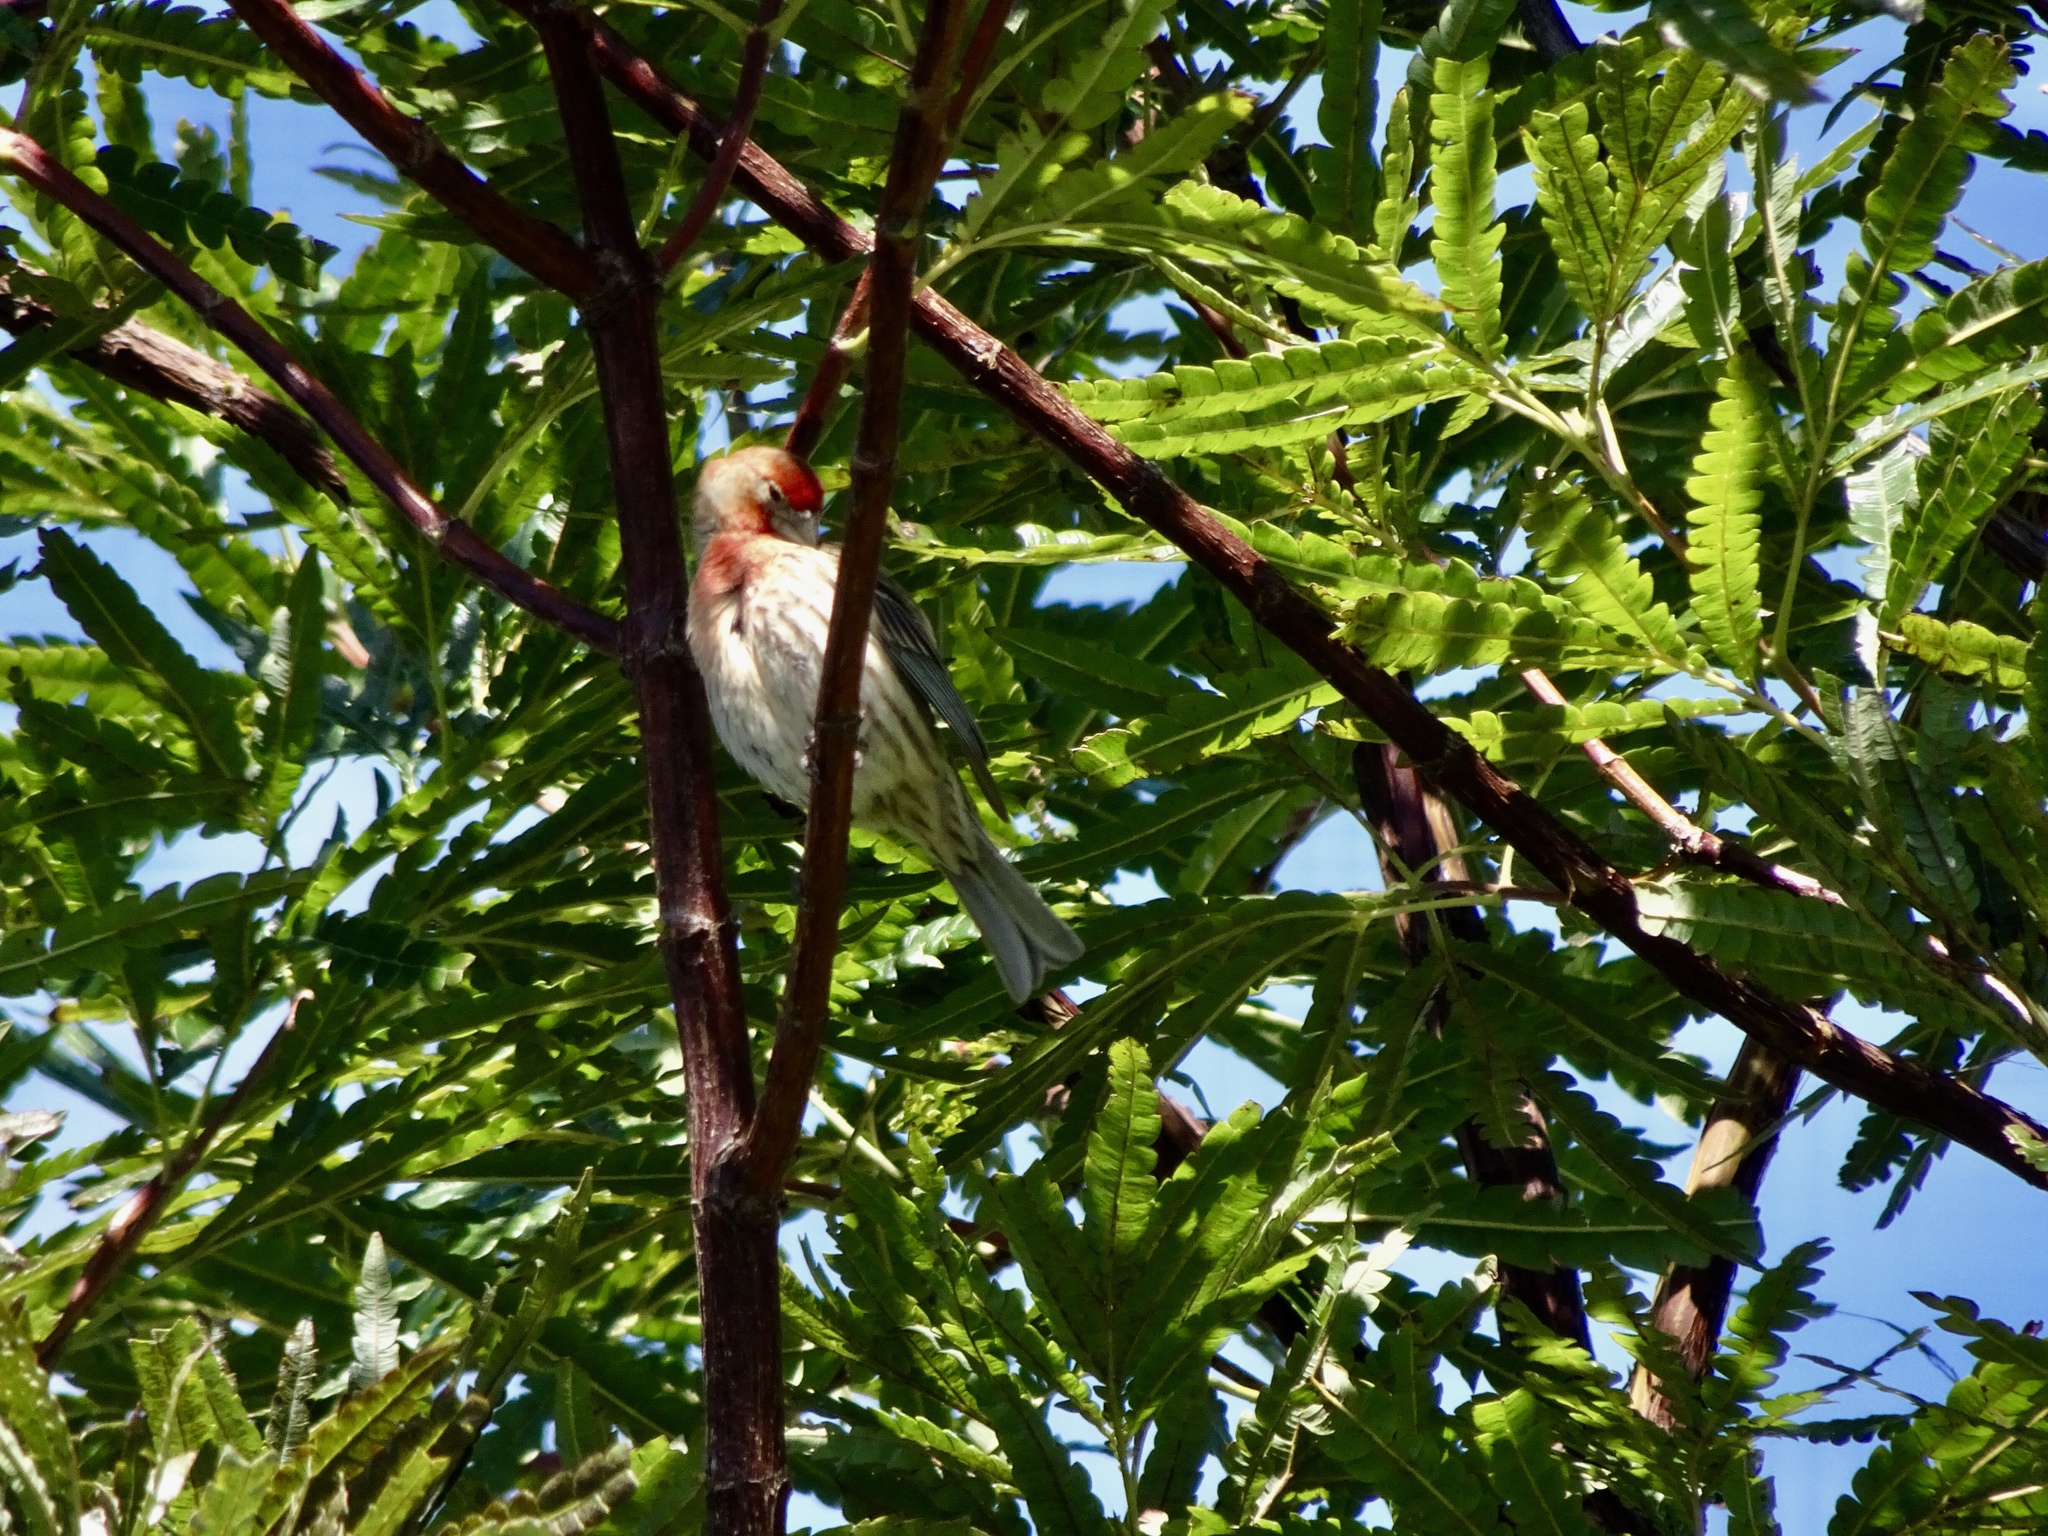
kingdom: Animalia
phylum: Chordata
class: Aves
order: Passeriformes
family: Fringillidae
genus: Haemorhous
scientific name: Haemorhous mexicanus
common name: House finch
